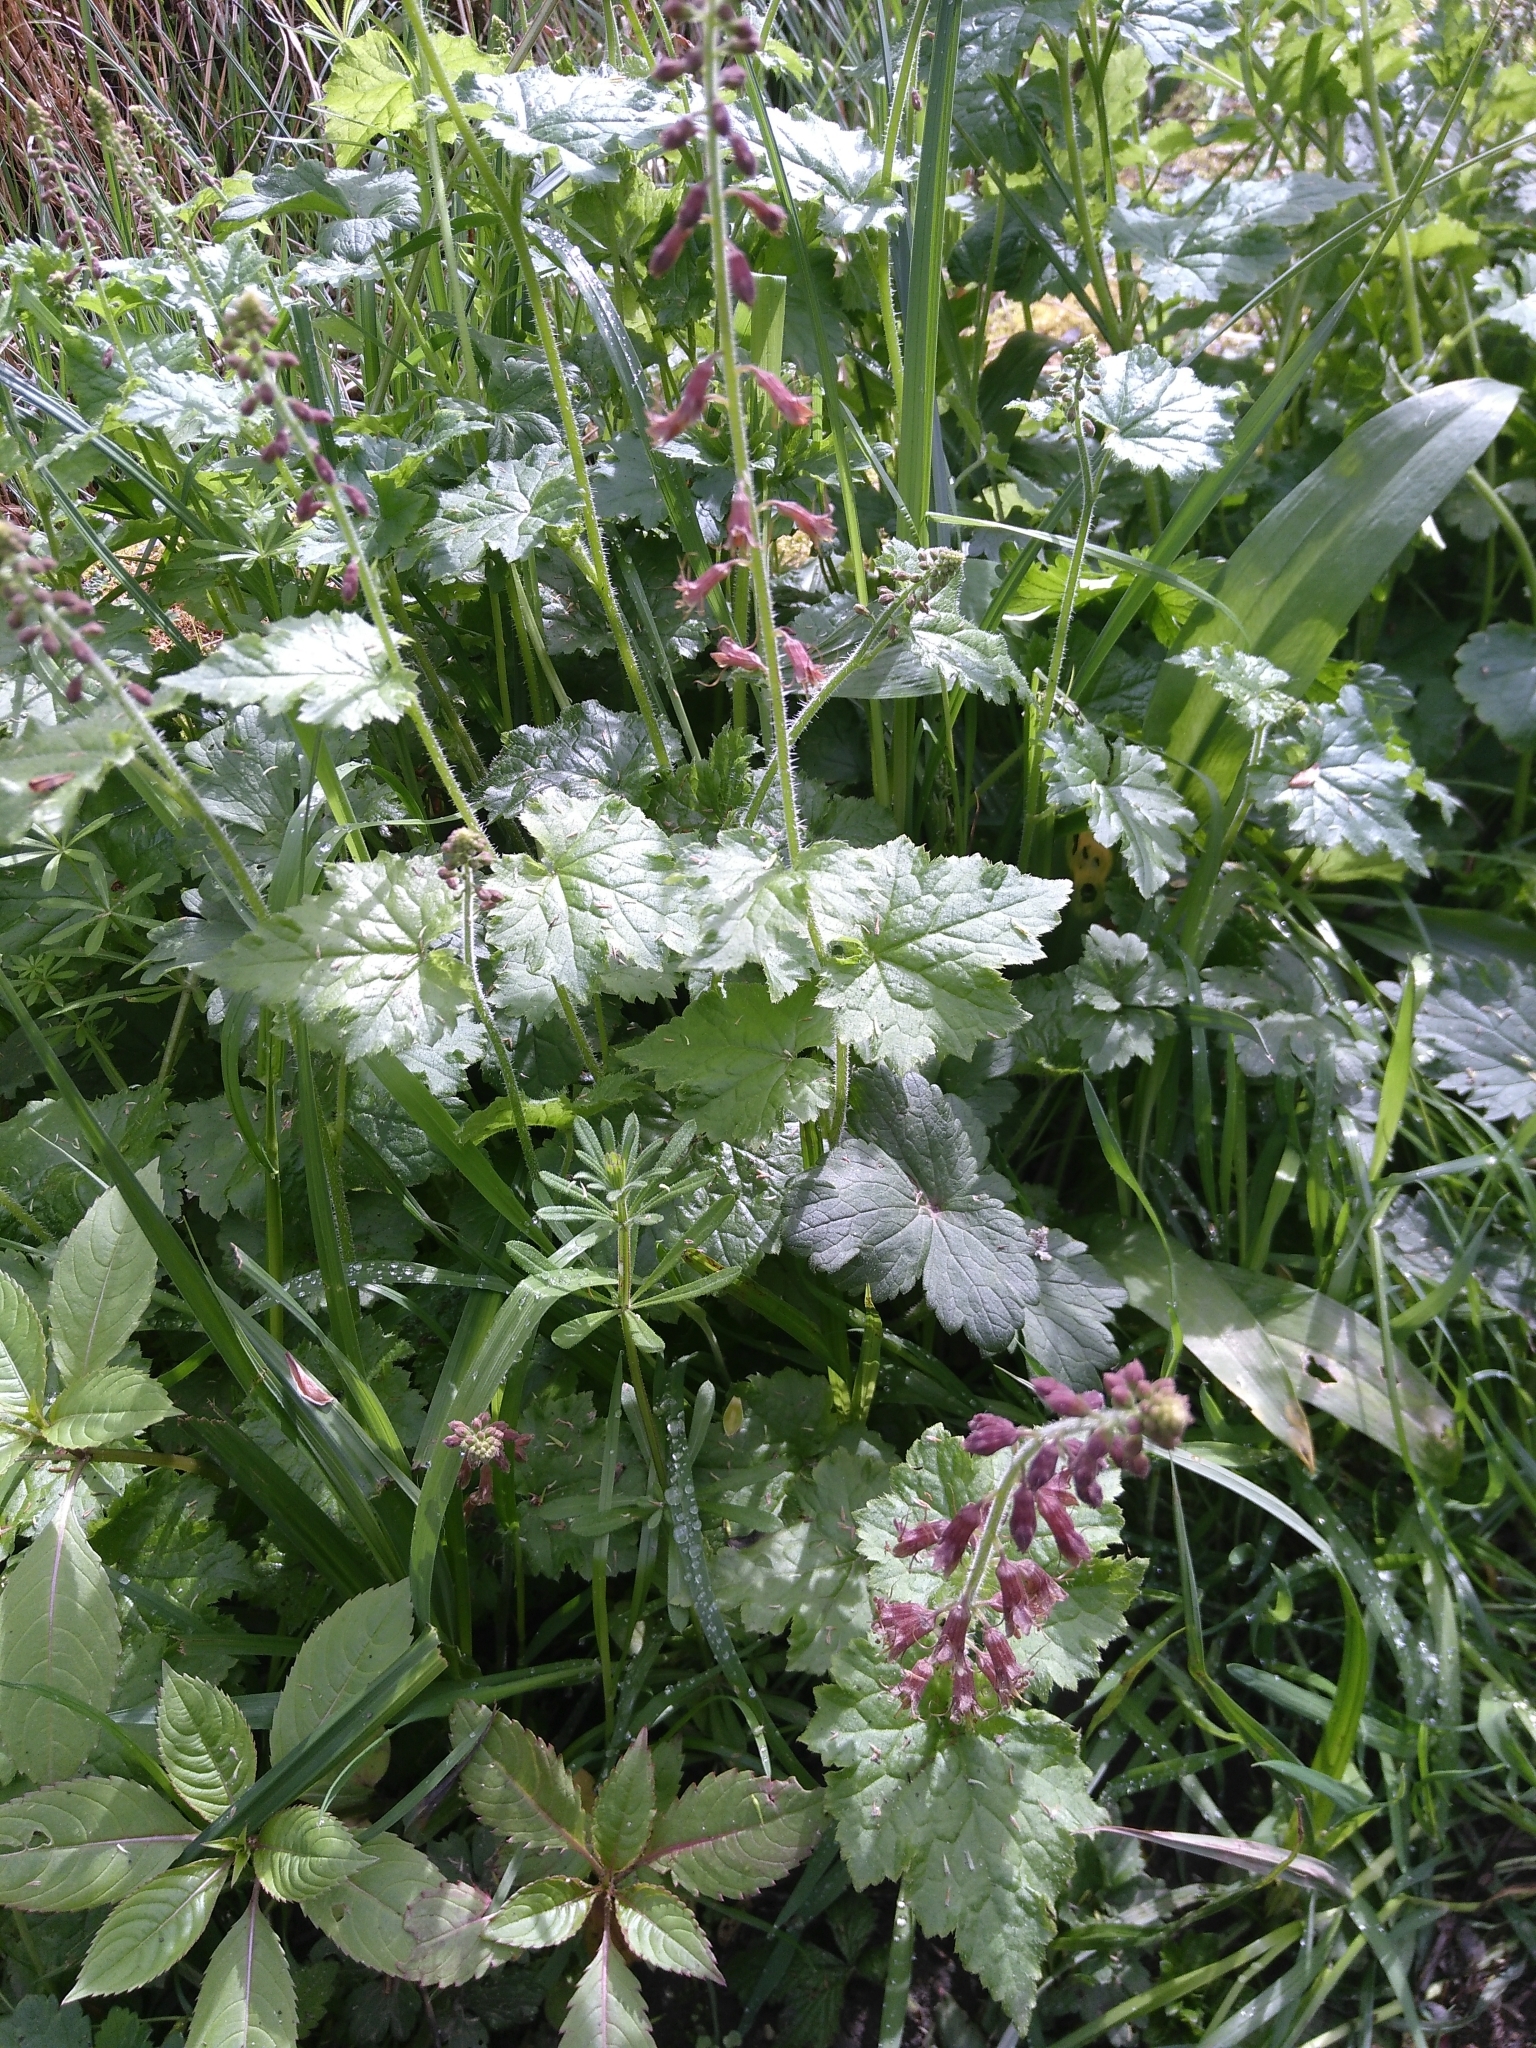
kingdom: Plantae
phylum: Tracheophyta
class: Magnoliopsida
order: Saxifragales
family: Saxifragaceae
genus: Tolmiea
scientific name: Tolmiea menziesii
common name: Pick-a-back-plant
